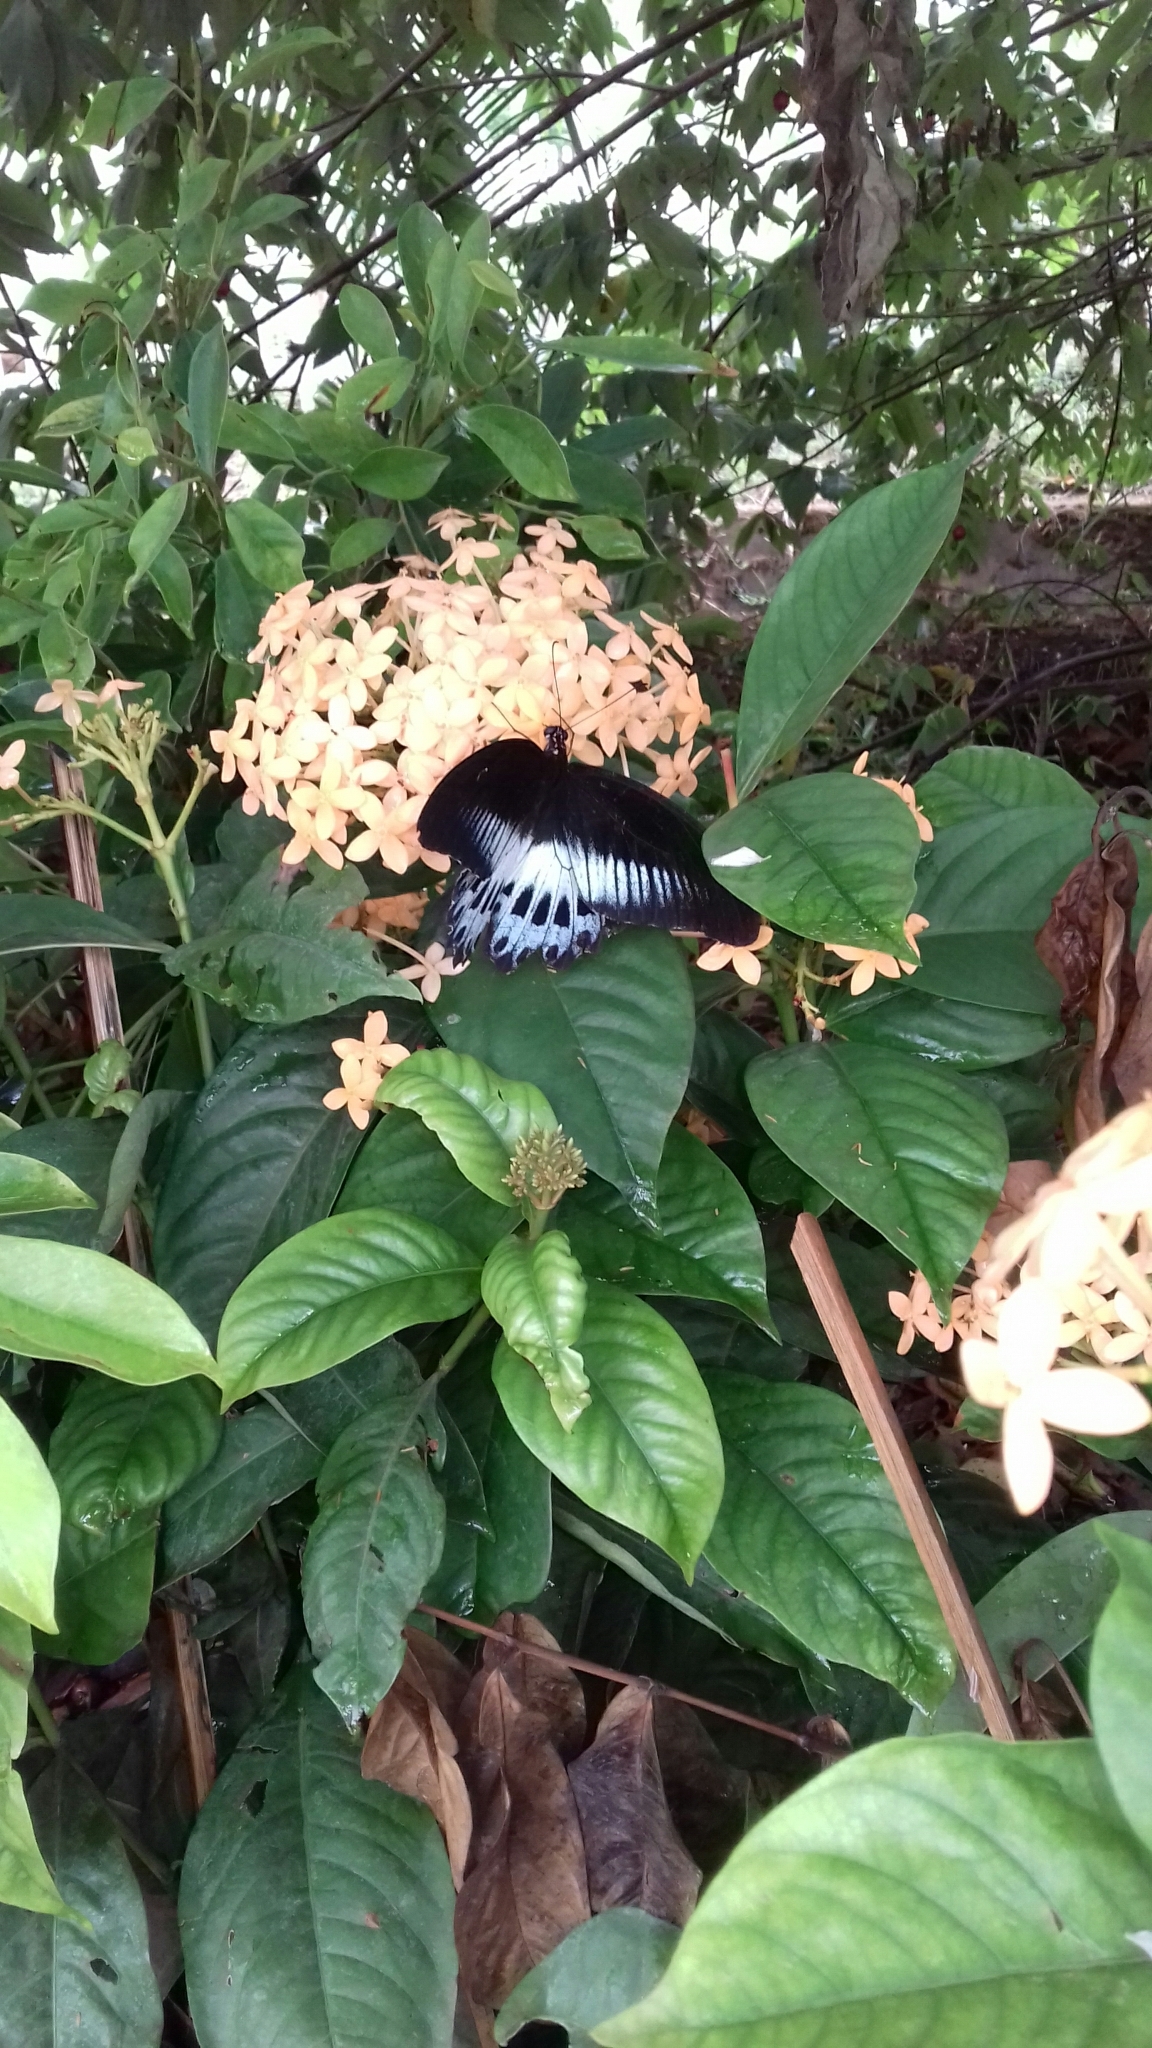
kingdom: Animalia
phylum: Arthropoda
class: Insecta
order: Lepidoptera
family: Papilionidae
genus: Papilio
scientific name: Papilio memnon
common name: Great mormon
